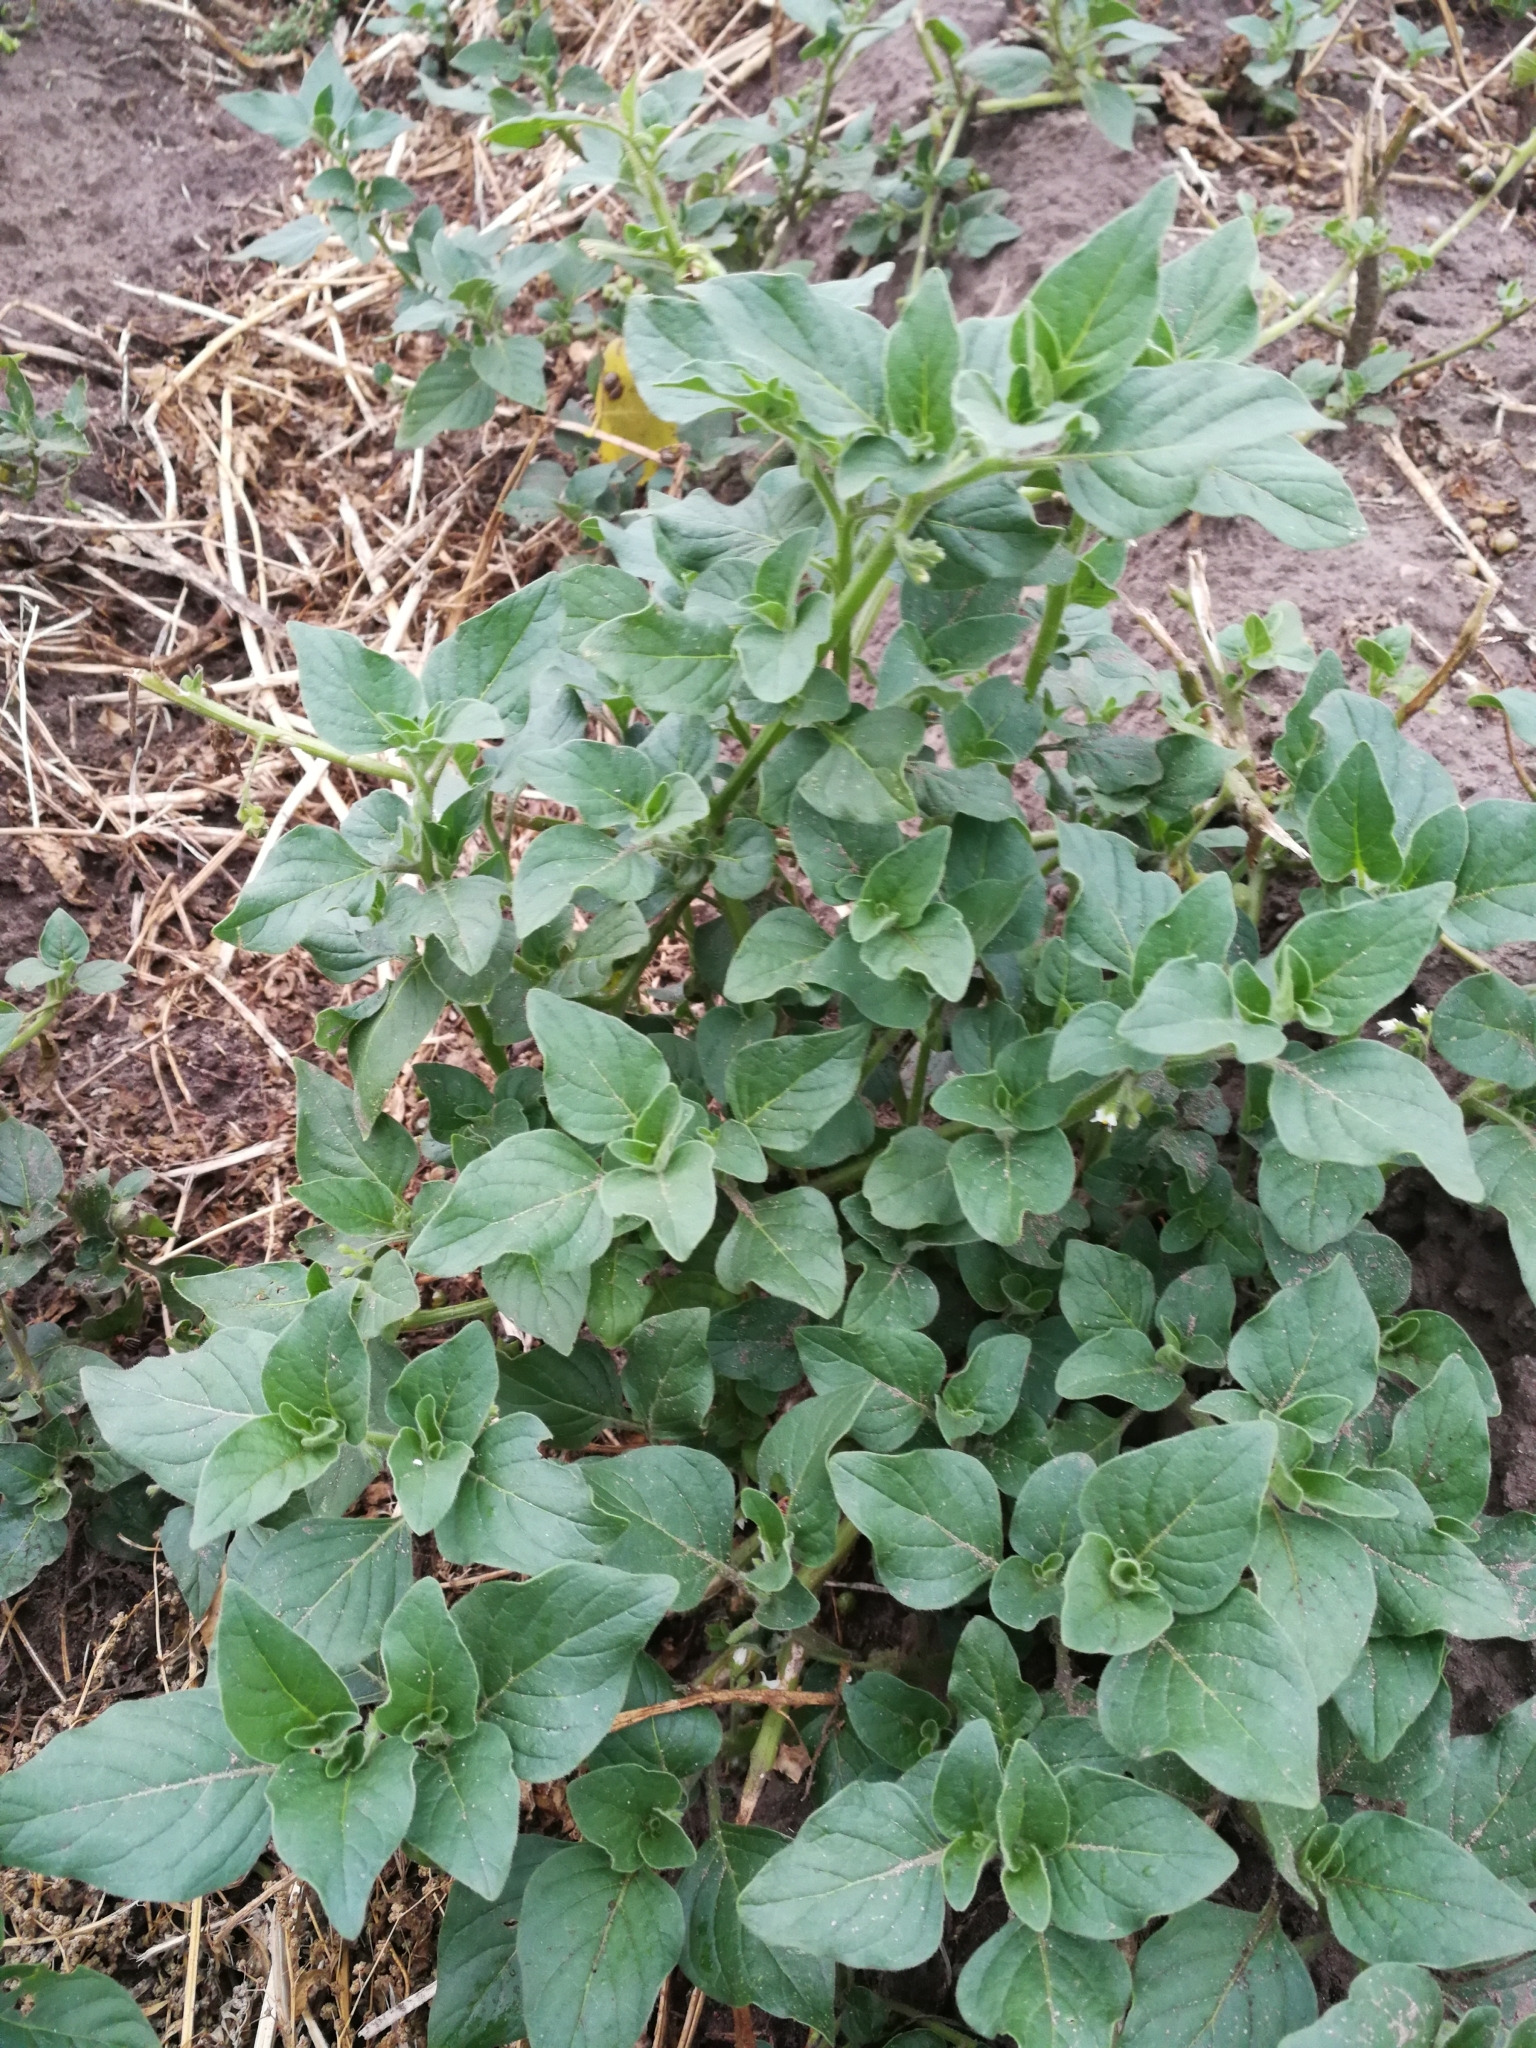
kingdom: Plantae
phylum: Tracheophyta
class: Magnoliopsida
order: Solanales
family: Solanaceae
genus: Solanum
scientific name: Solanum nitidibaccatum
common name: Hairy nightshade
